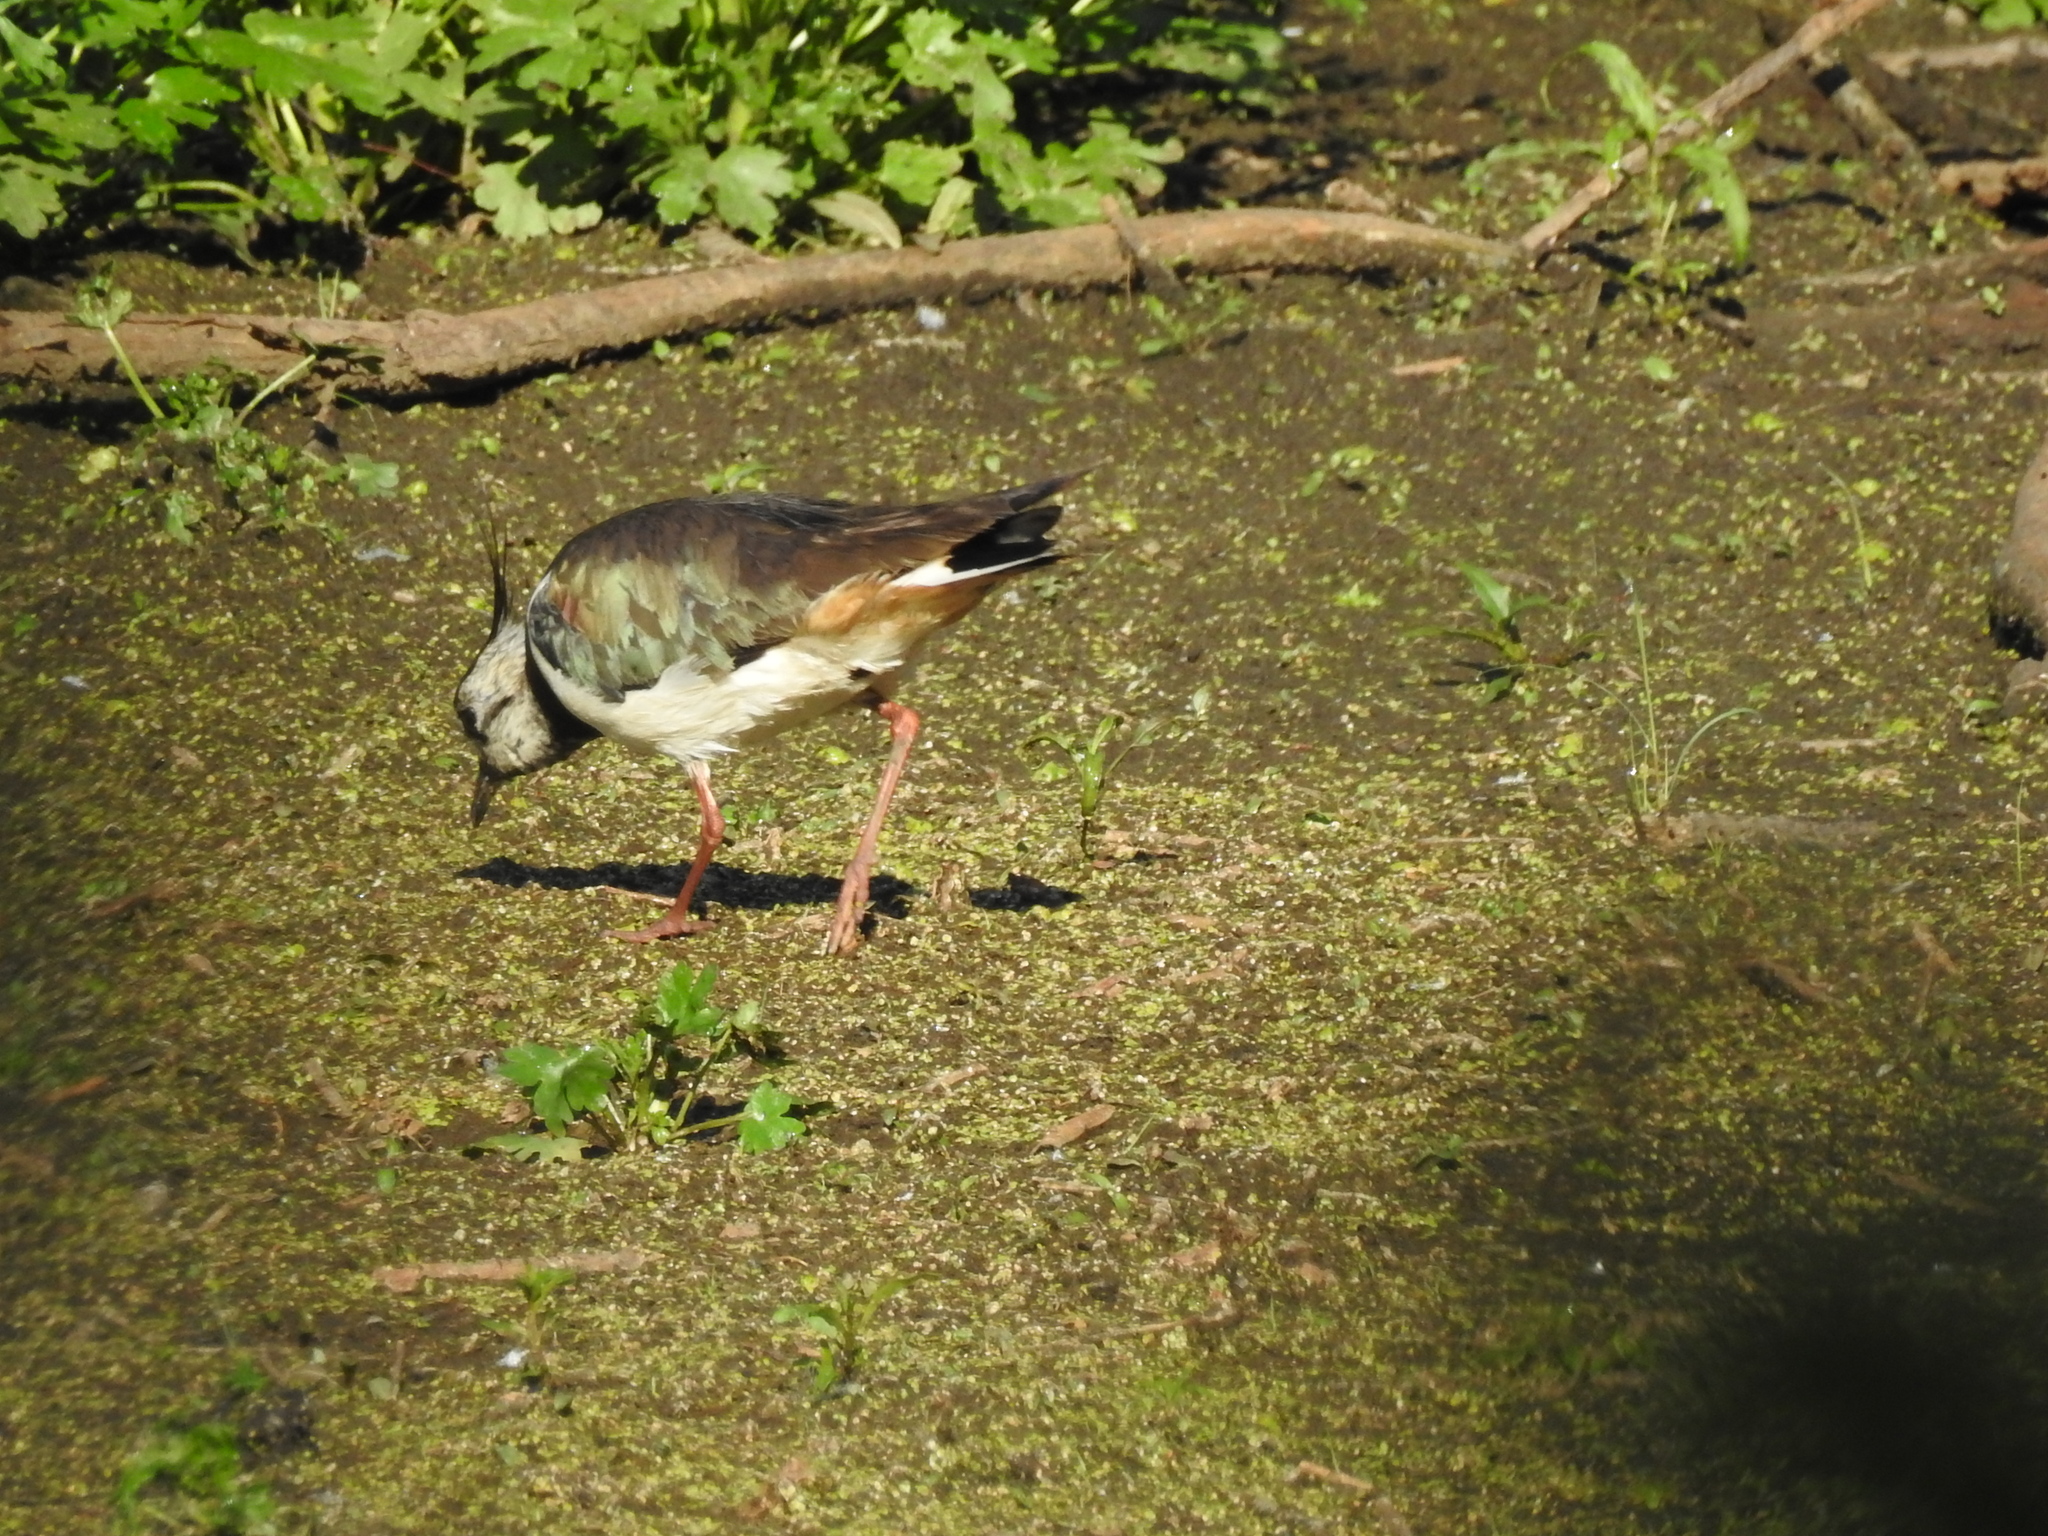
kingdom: Animalia
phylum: Chordata
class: Aves
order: Charadriiformes
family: Charadriidae
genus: Vanellus
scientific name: Vanellus vanellus
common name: Northern lapwing
